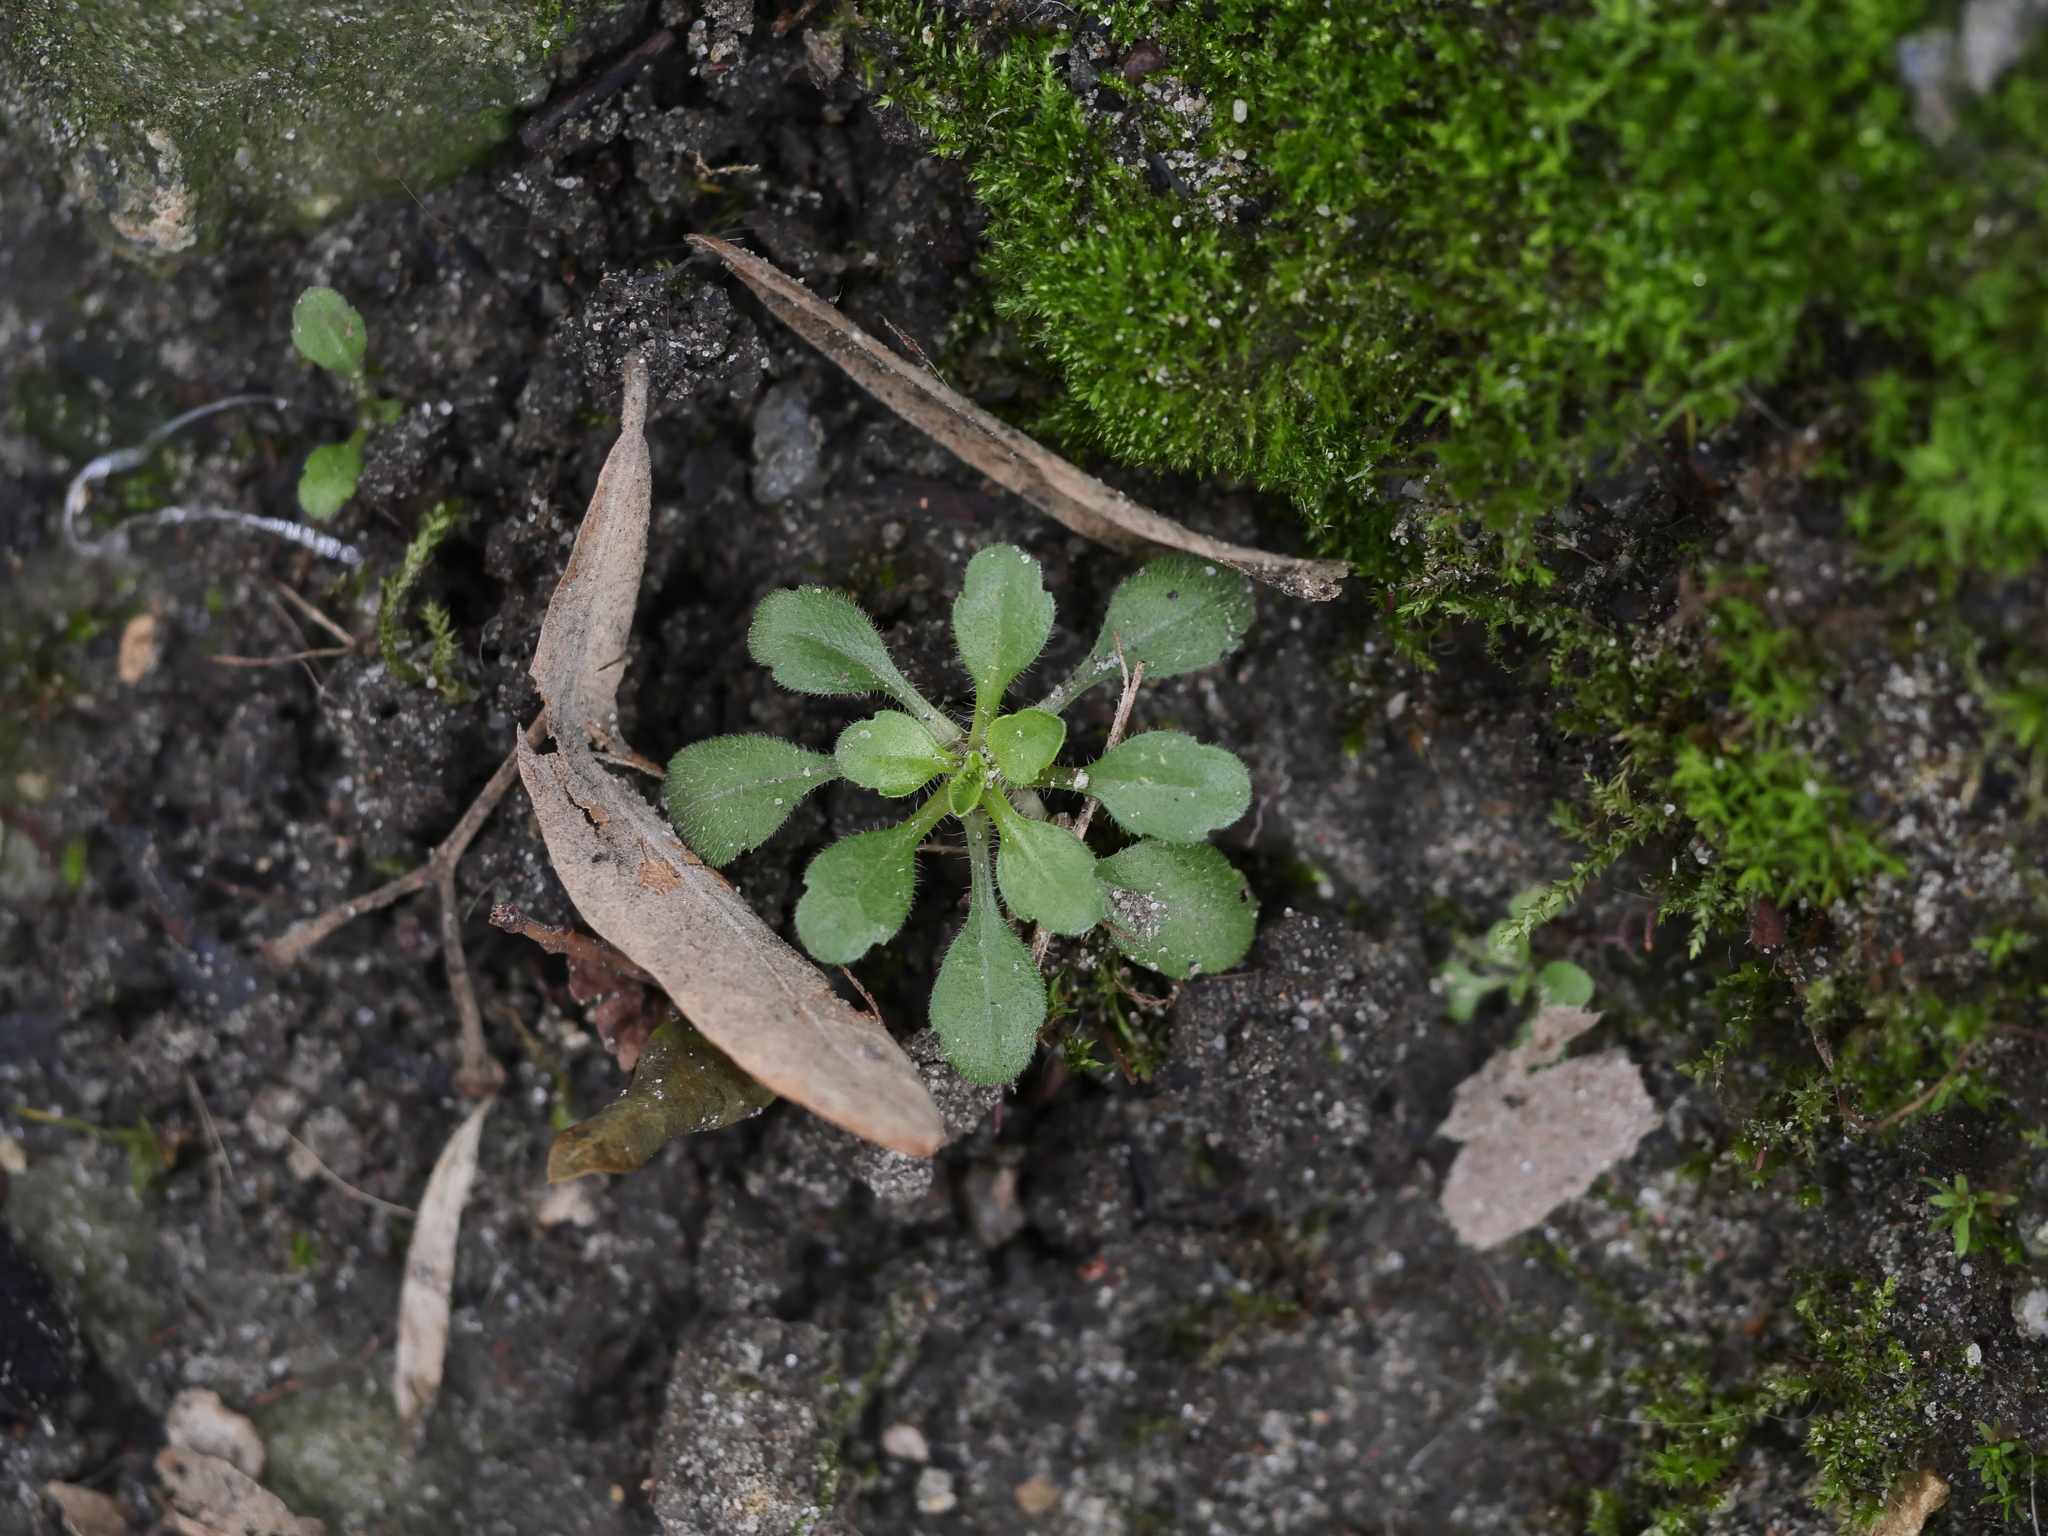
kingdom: Plantae
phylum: Tracheophyta
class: Magnoliopsida
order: Asterales
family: Asteraceae
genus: Erigeron
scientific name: Erigeron canadensis
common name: Canadian fleabane
